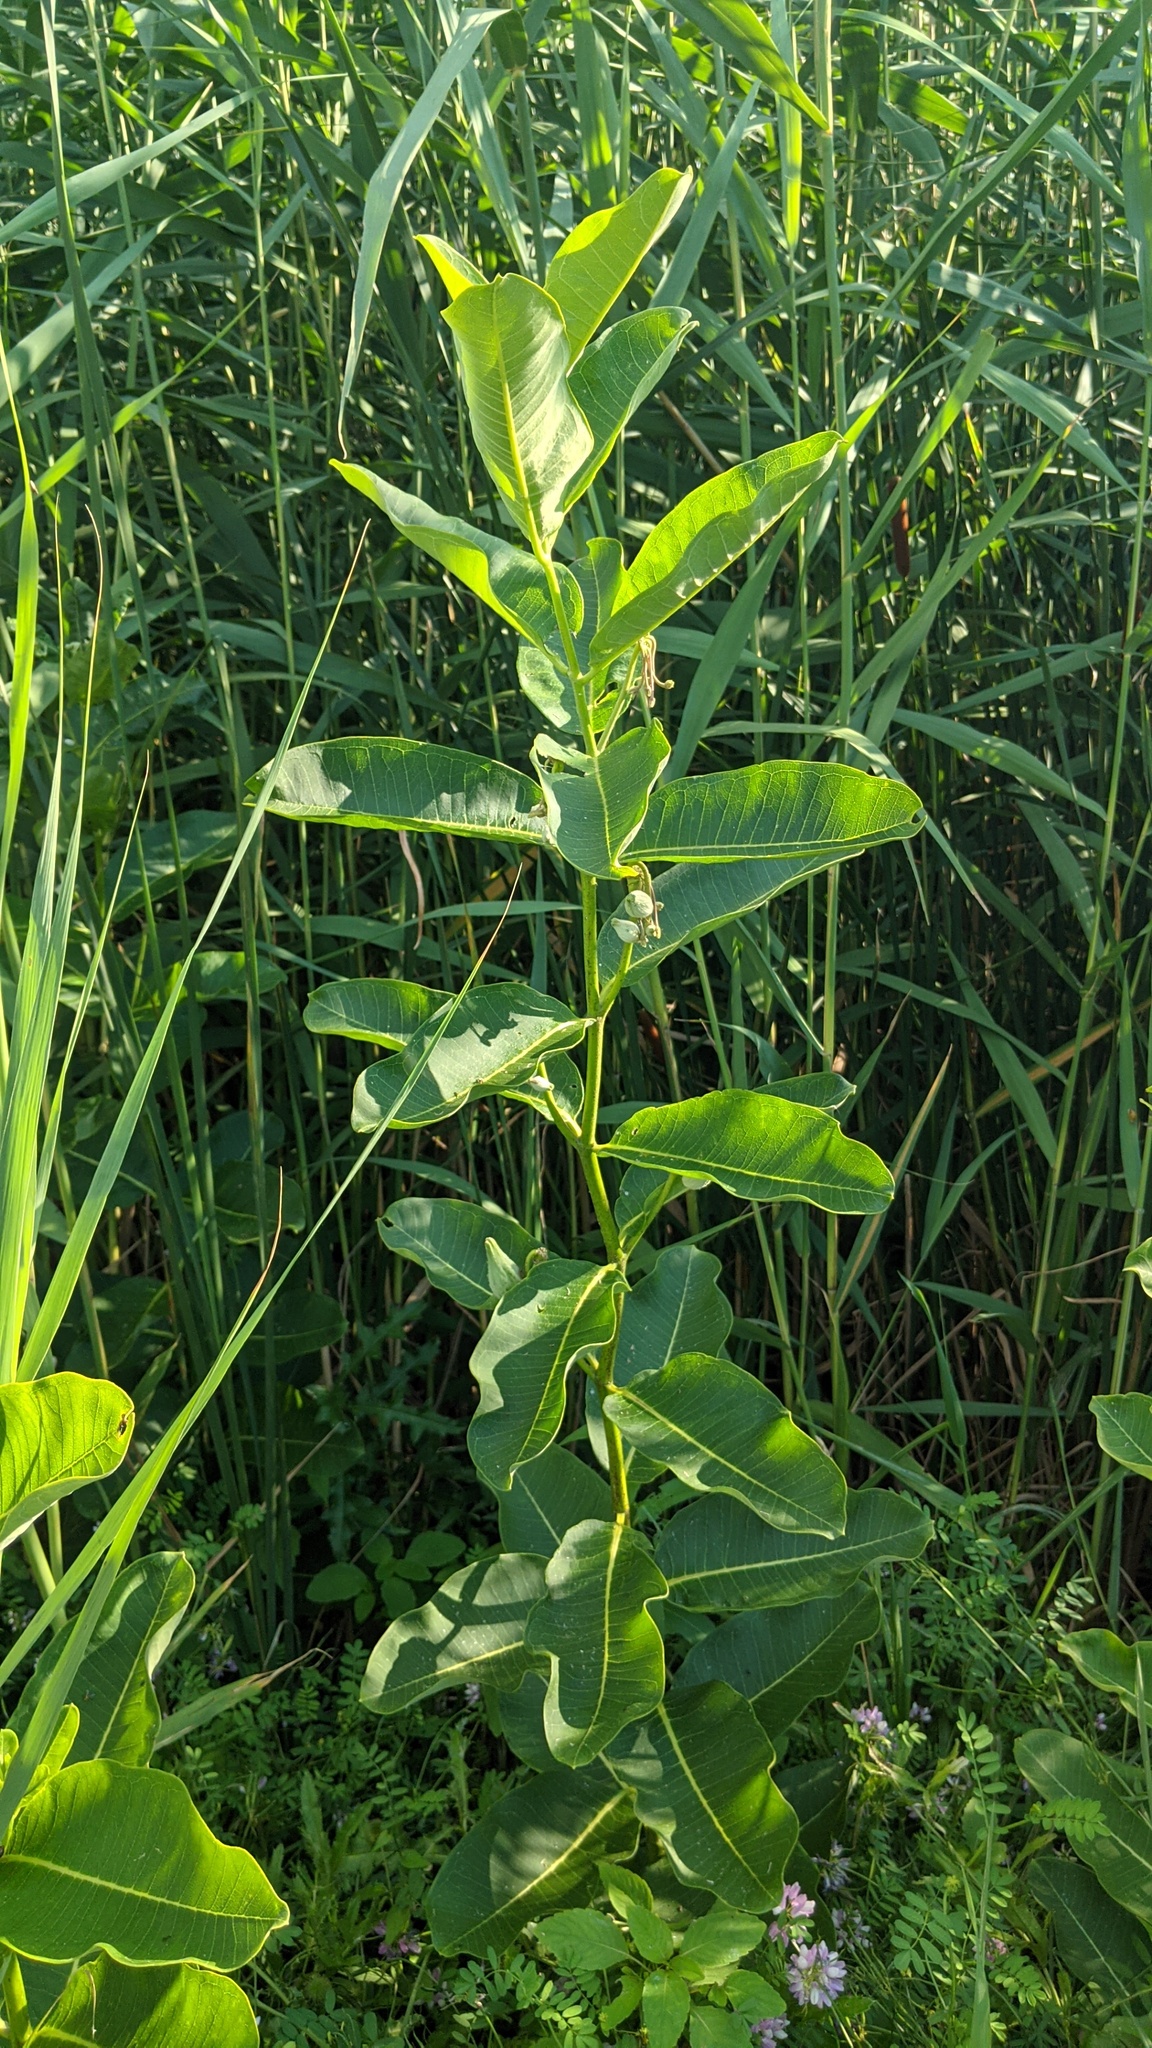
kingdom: Plantae
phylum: Tracheophyta
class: Magnoliopsida
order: Gentianales
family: Apocynaceae
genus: Asclepias
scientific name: Asclepias syriaca
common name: Common milkweed
